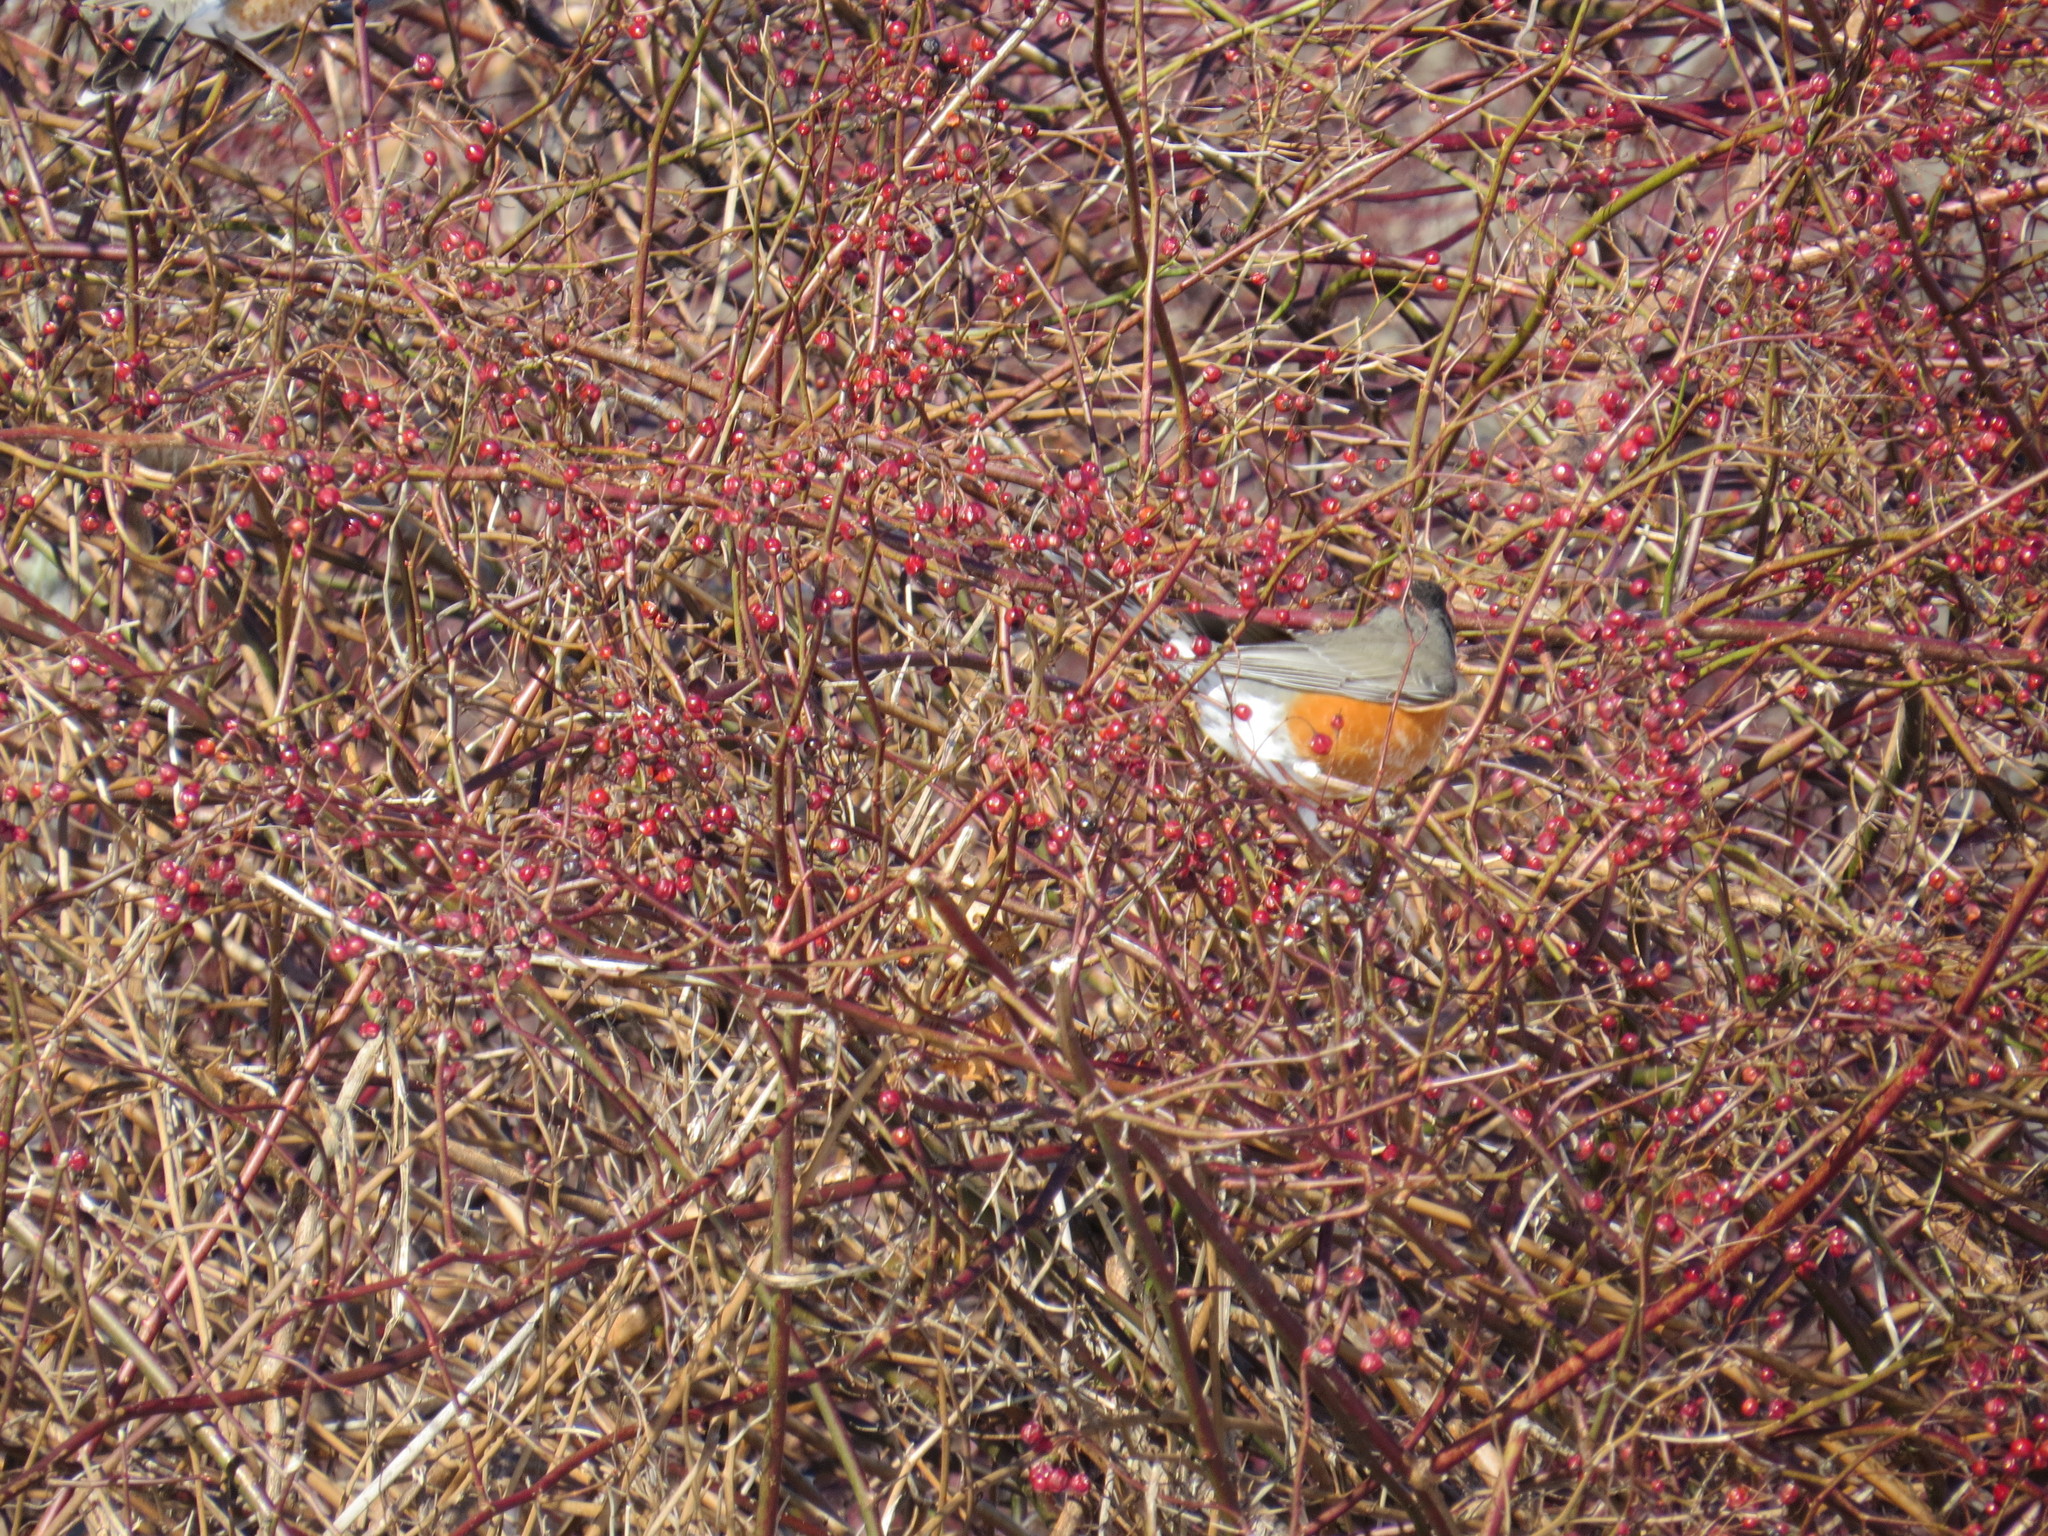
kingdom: Animalia
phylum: Chordata
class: Aves
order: Passeriformes
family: Turdidae
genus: Turdus
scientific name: Turdus migratorius
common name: American robin
